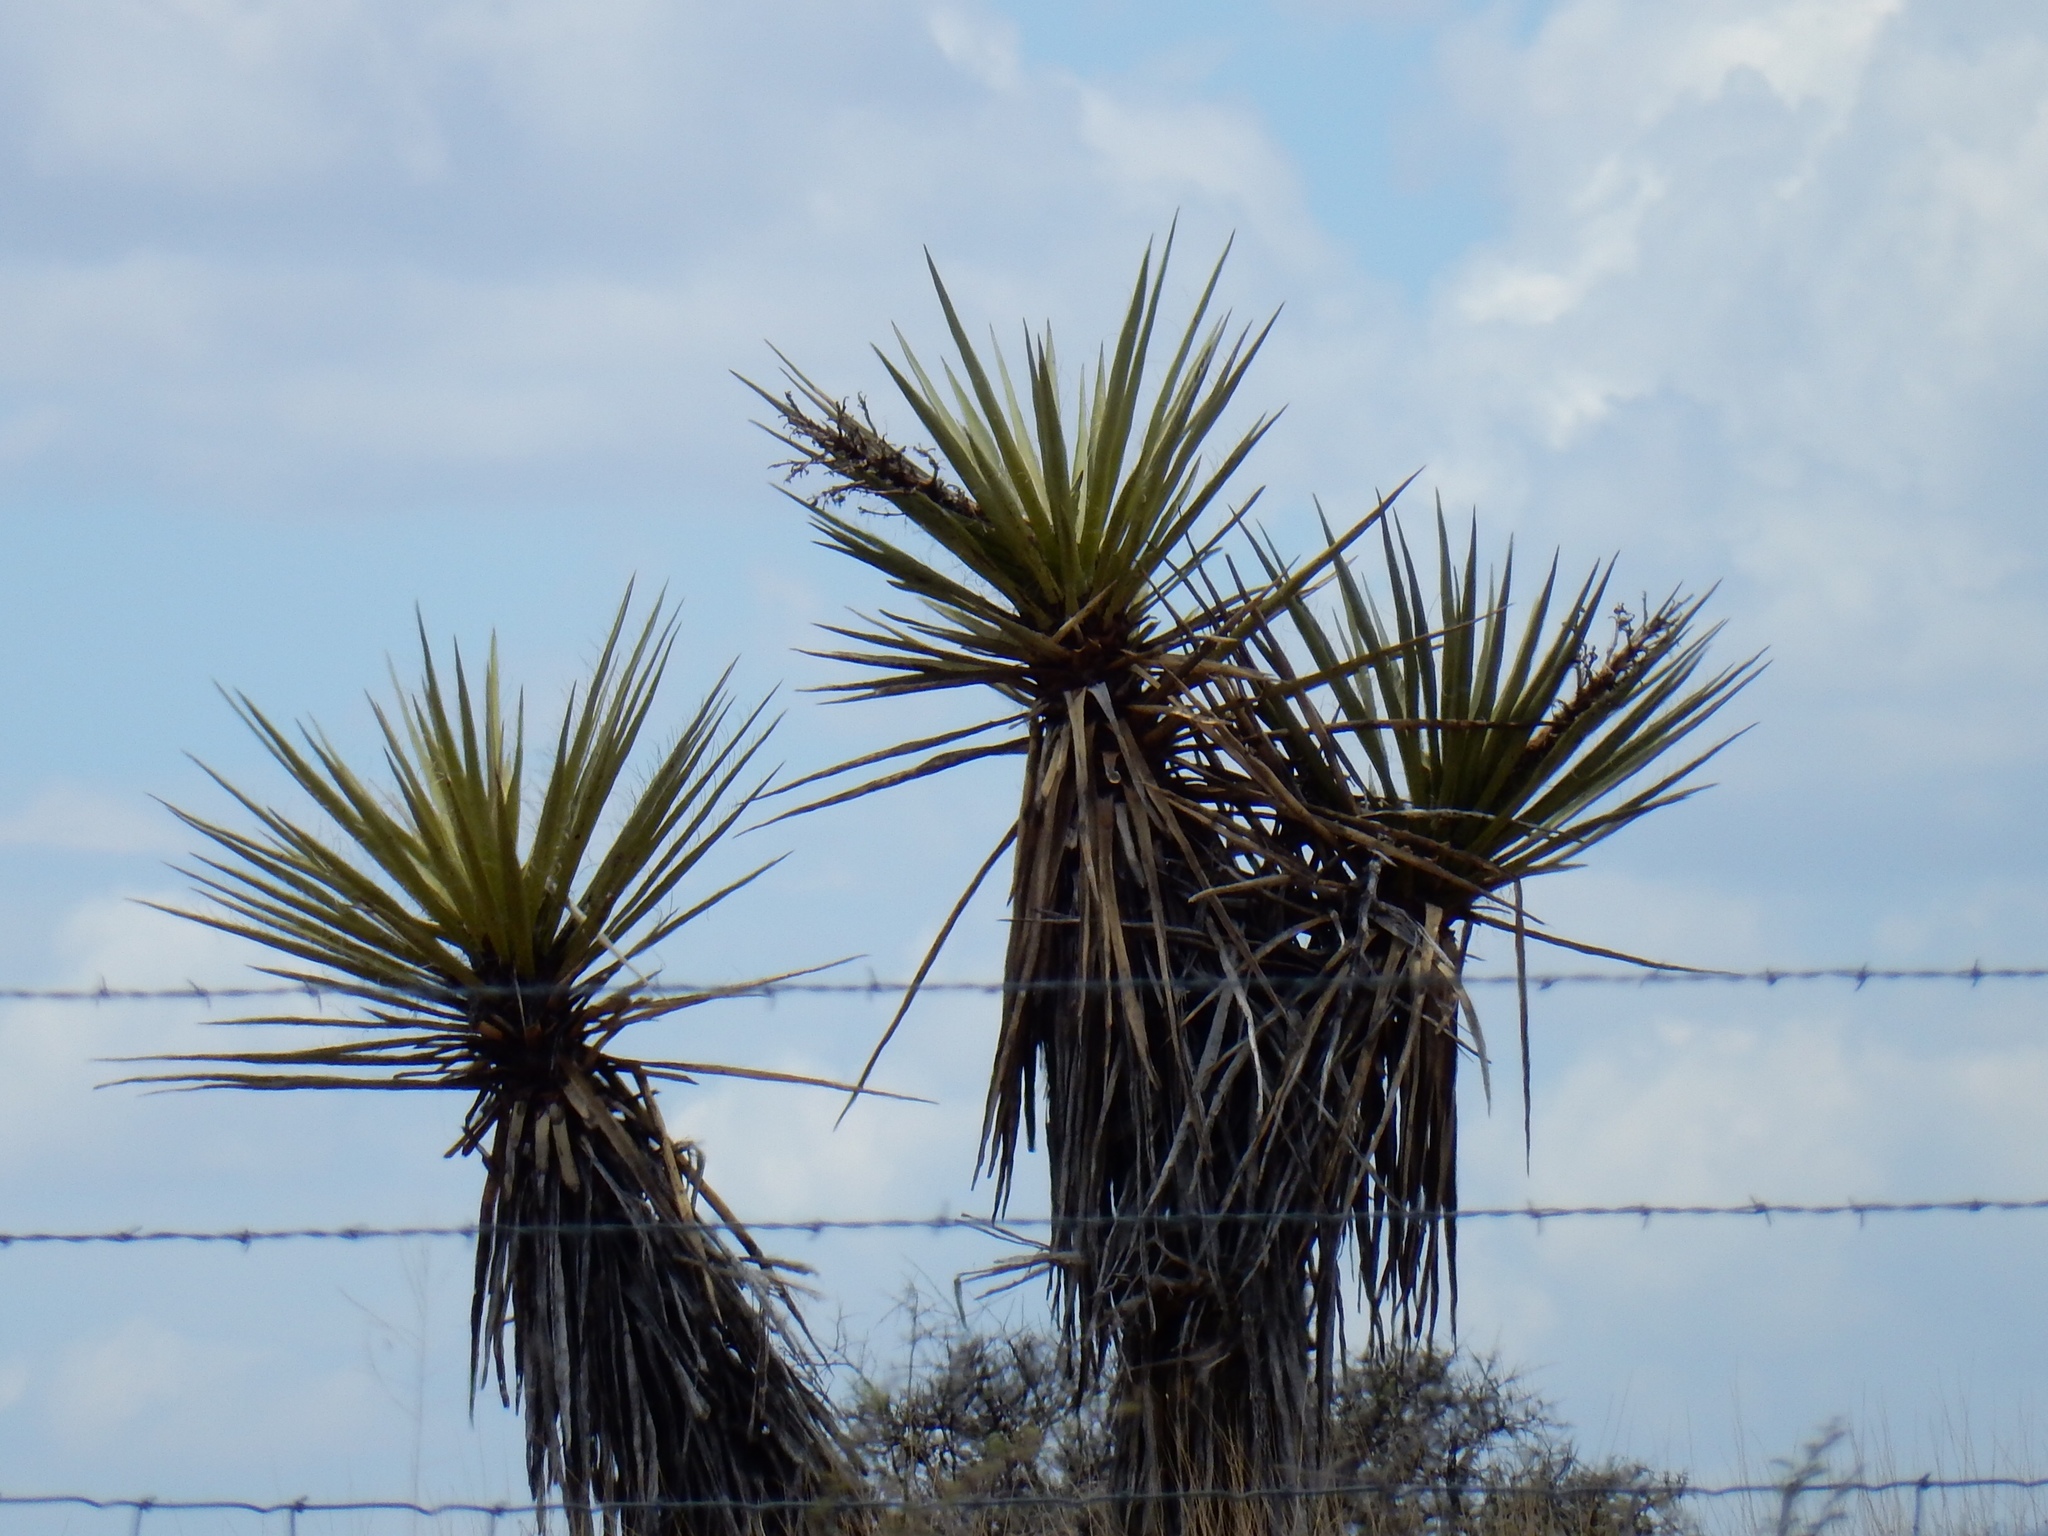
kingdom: Plantae
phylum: Tracheophyta
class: Liliopsida
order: Asparagales
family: Asparagaceae
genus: Yucca
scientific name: Yucca treculiana
